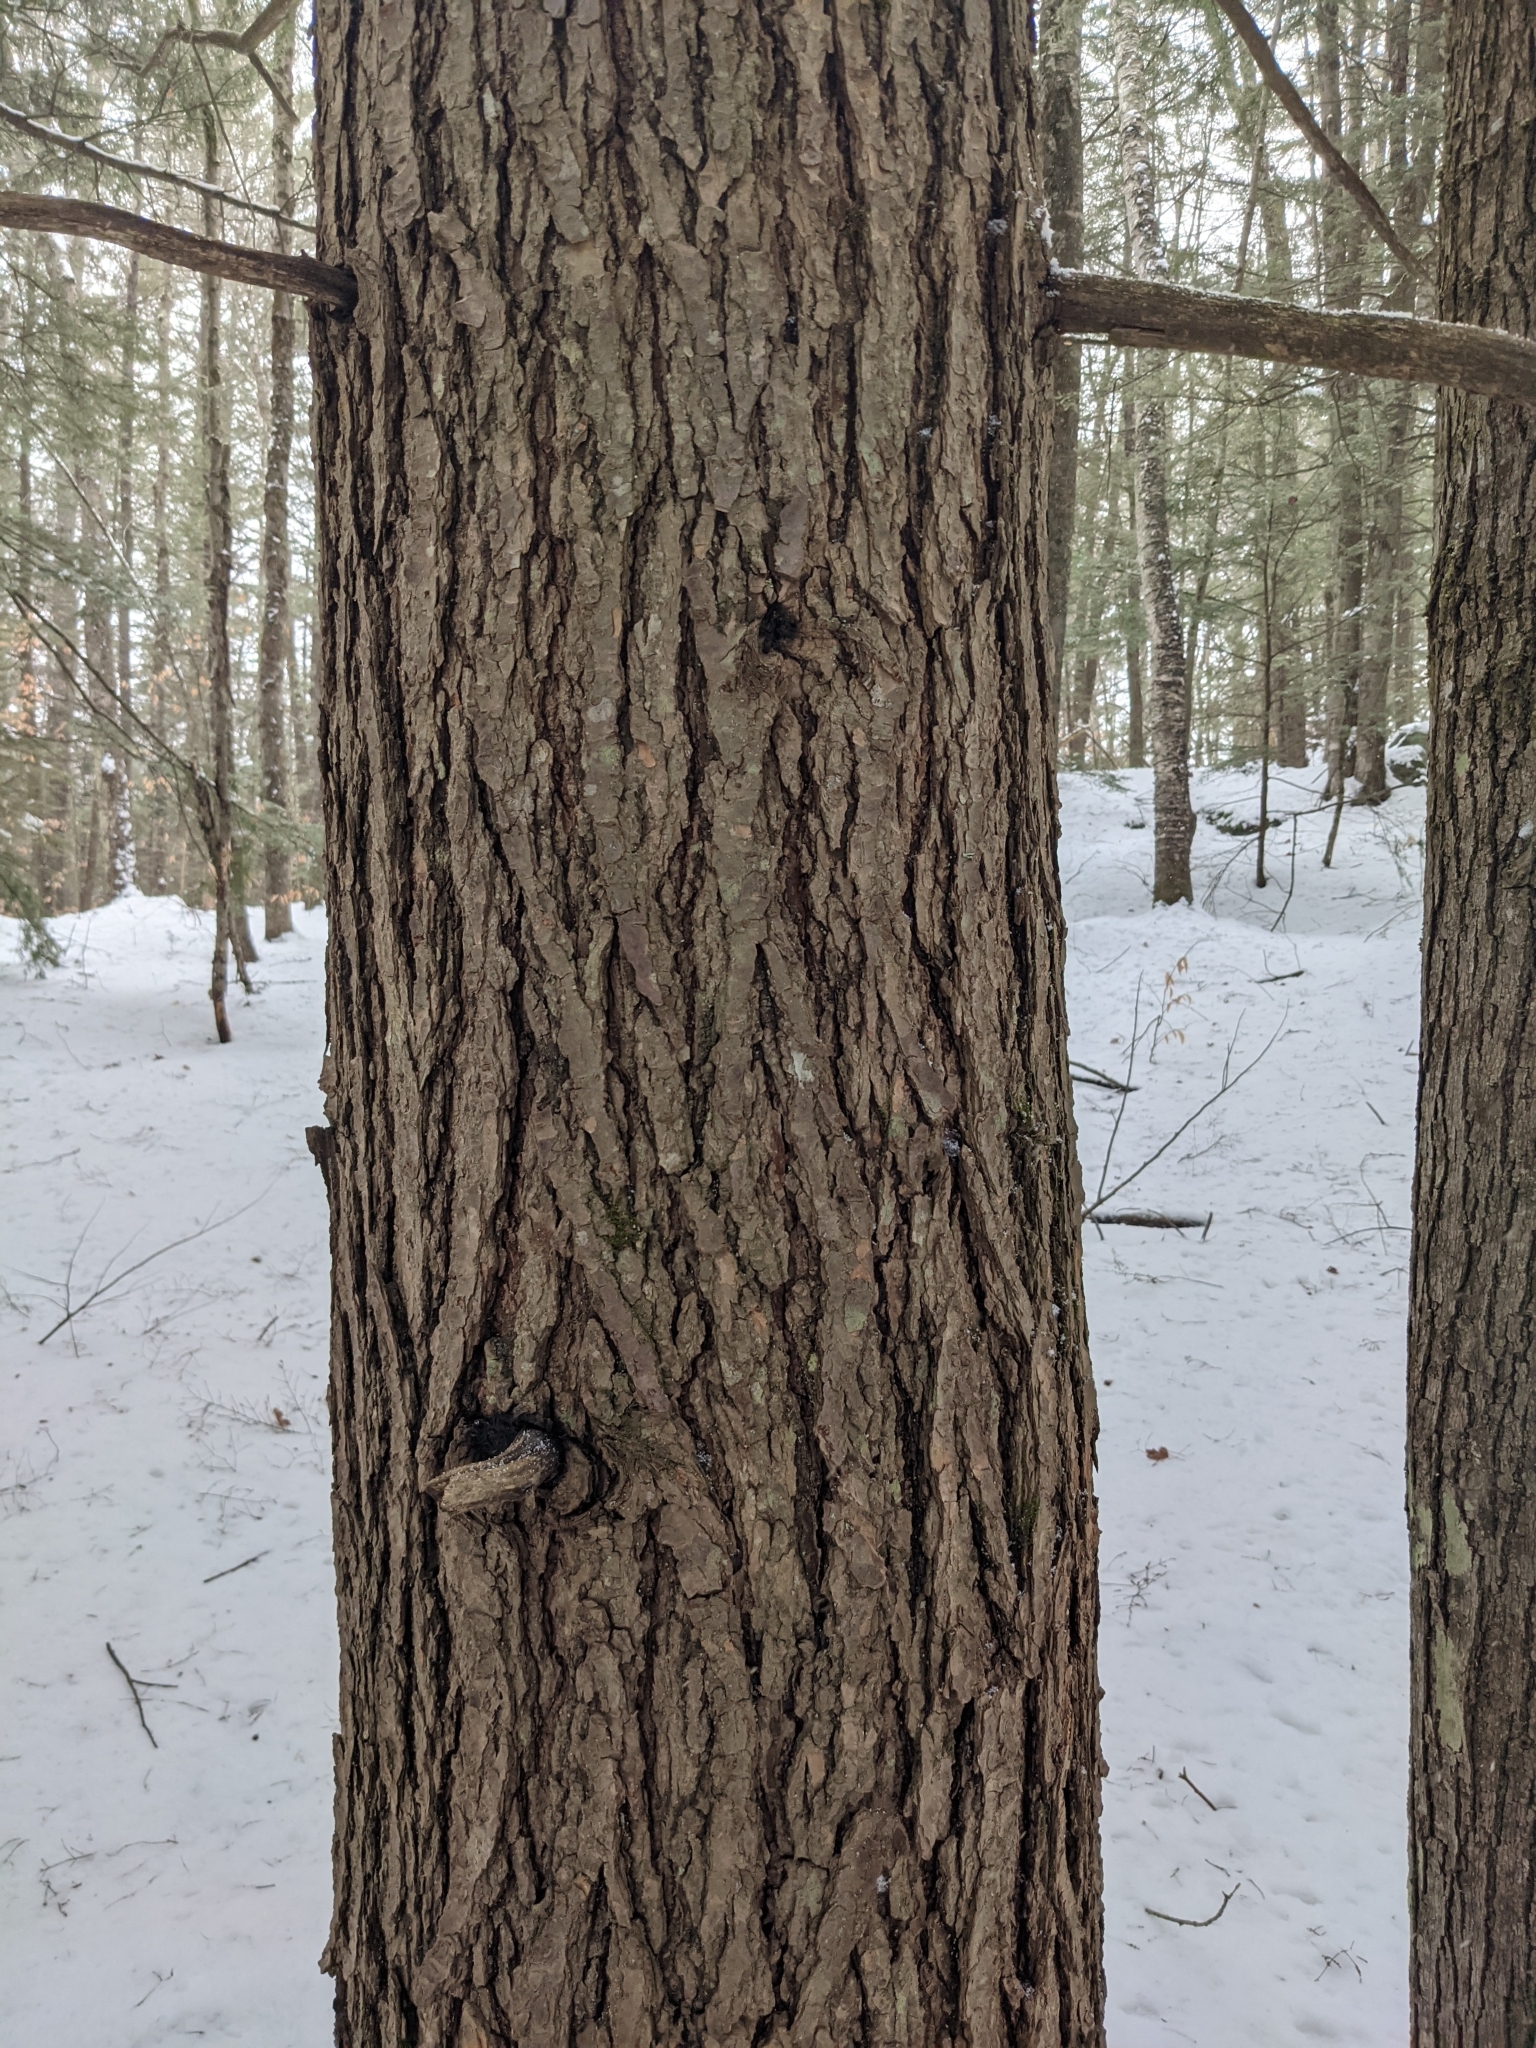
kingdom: Plantae
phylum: Tracheophyta
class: Pinopsida
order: Pinales
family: Pinaceae
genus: Tsuga
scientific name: Tsuga canadensis
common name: Eastern hemlock
